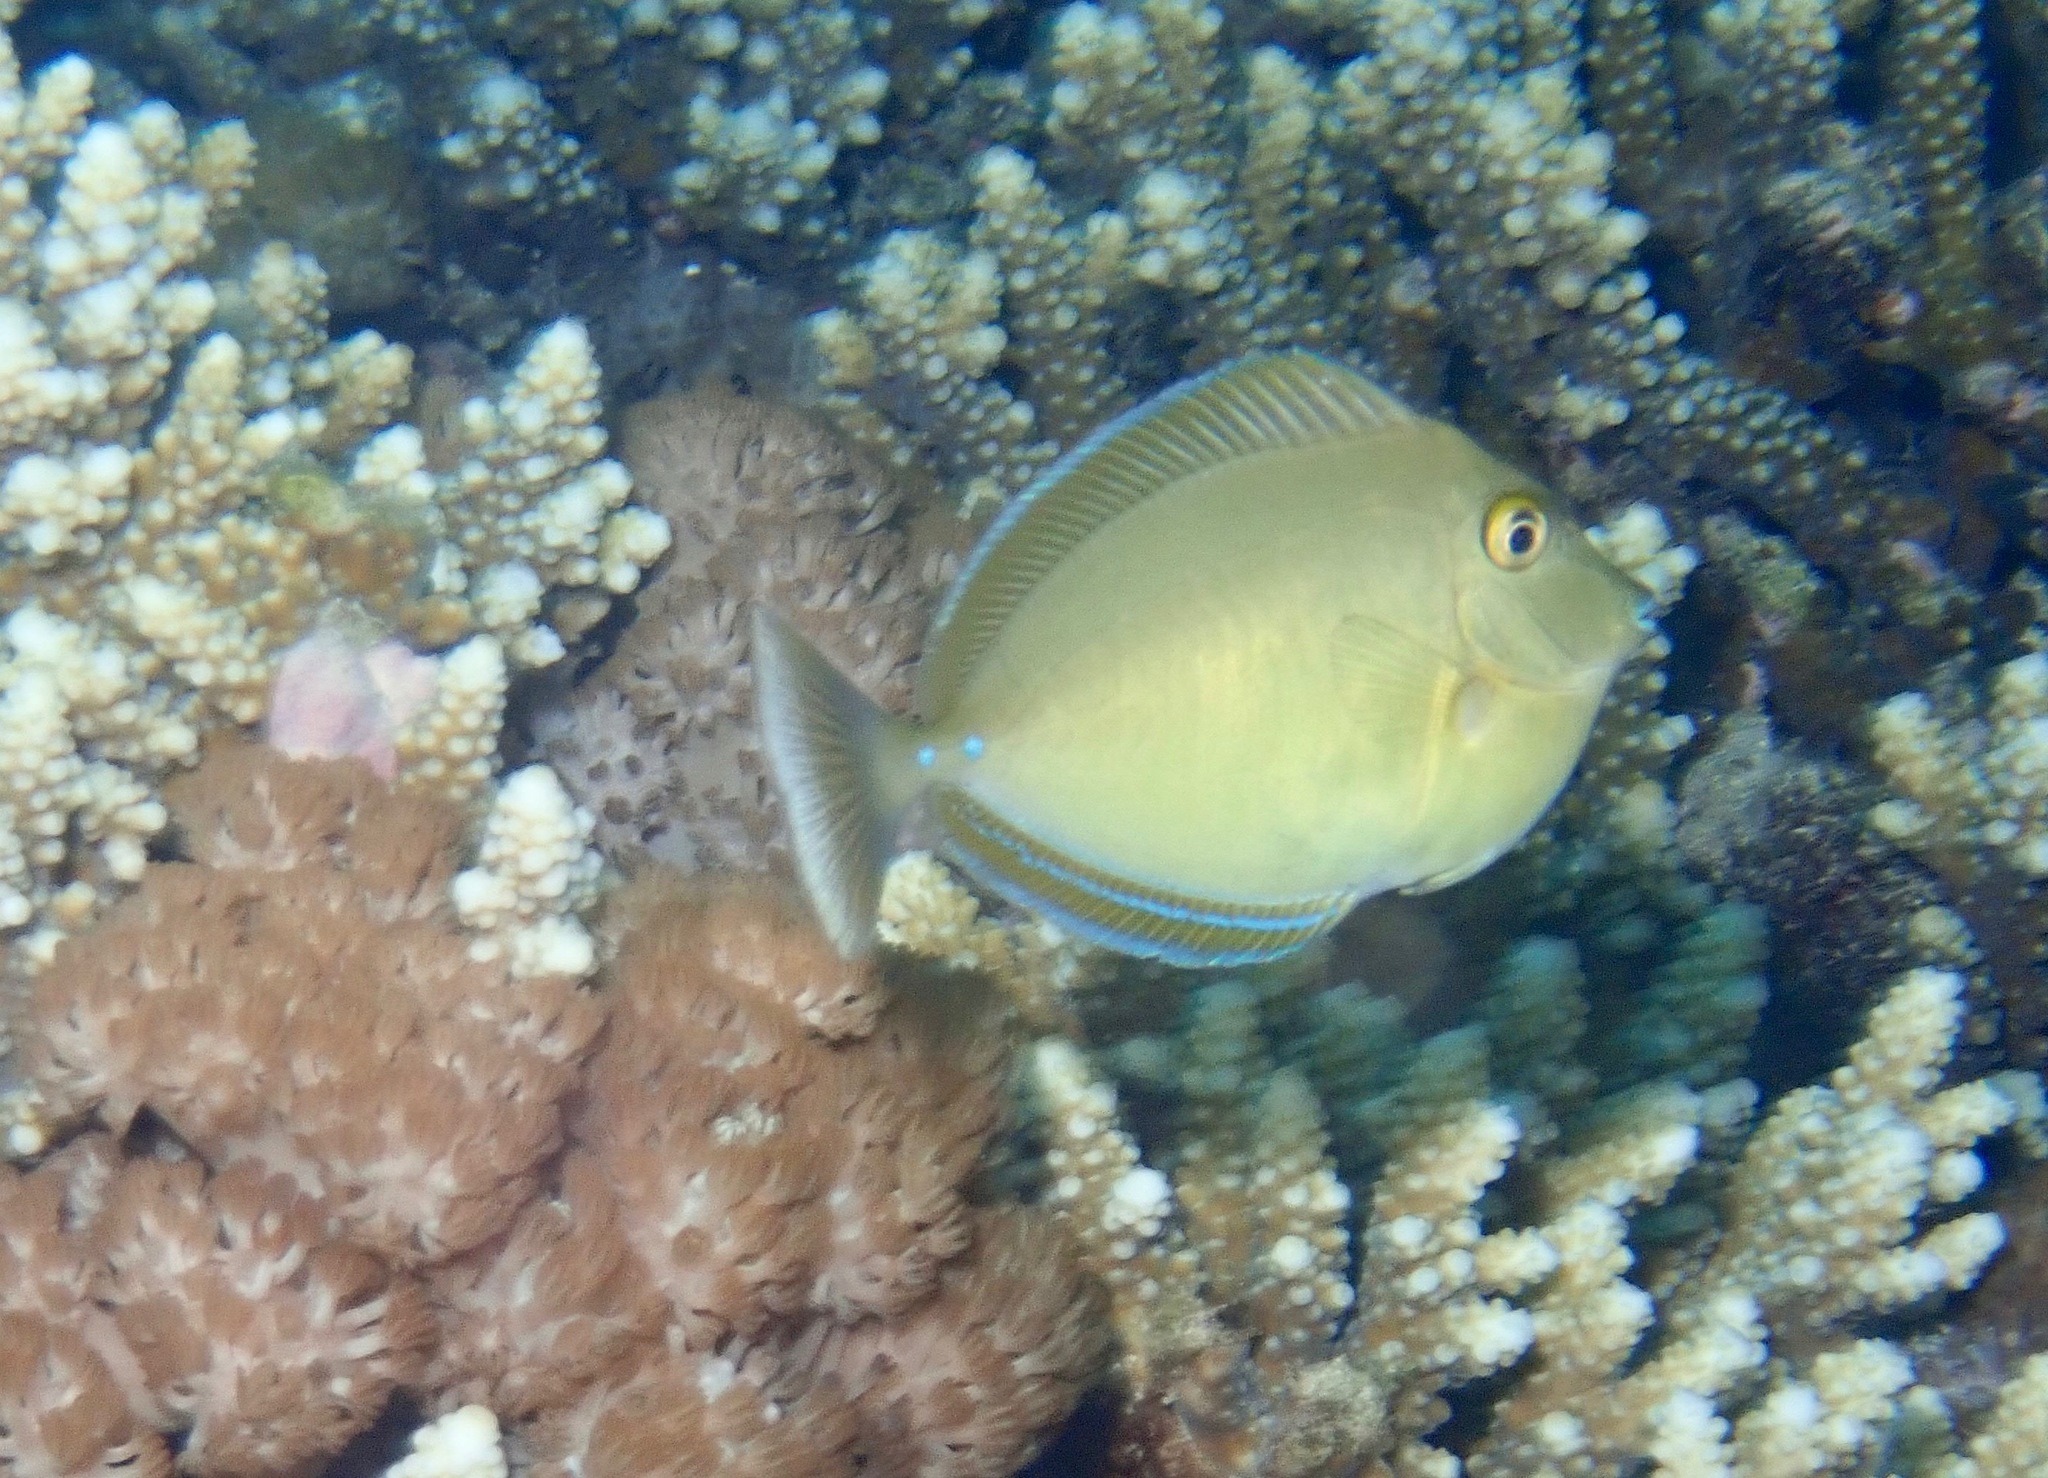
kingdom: Animalia
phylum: Chordata
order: Perciformes
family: Acanthuridae
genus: Naso
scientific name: Naso unicornis
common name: Bluespine unicornfish
